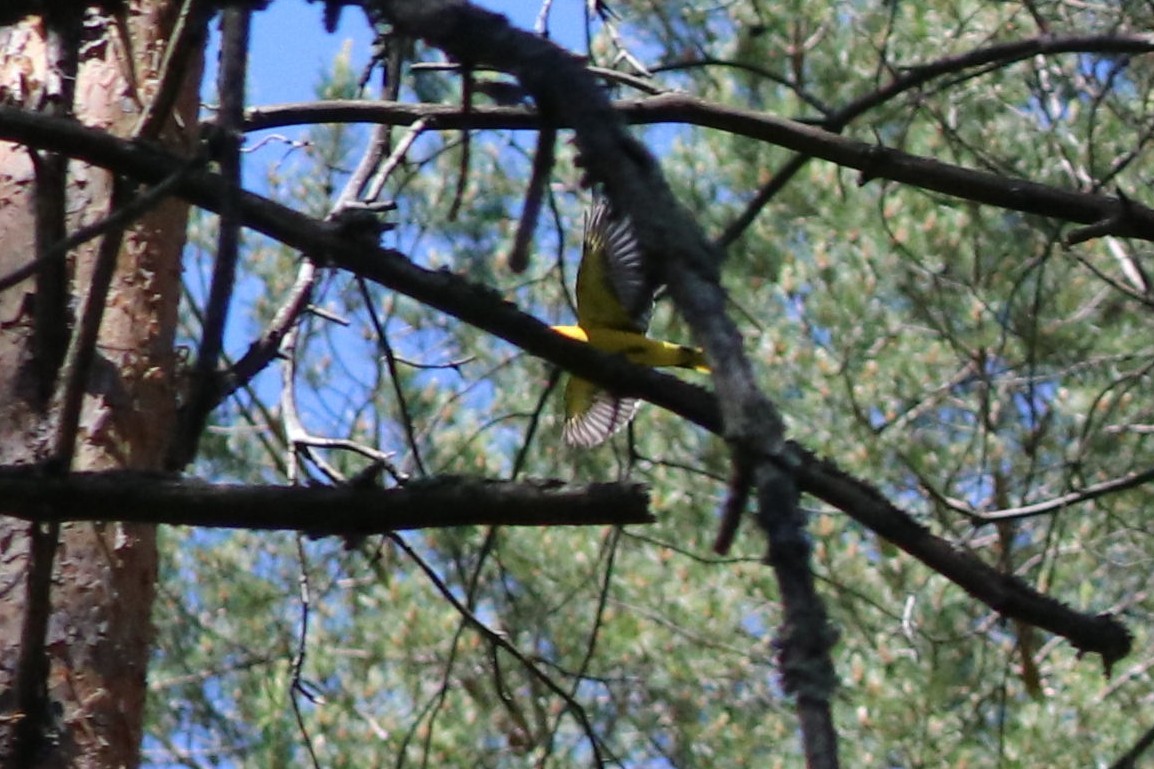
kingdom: Animalia
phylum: Chordata
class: Aves
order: Passeriformes
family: Oriolidae
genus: Oriolus
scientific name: Oriolus oriolus
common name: Eurasian golden oriole
